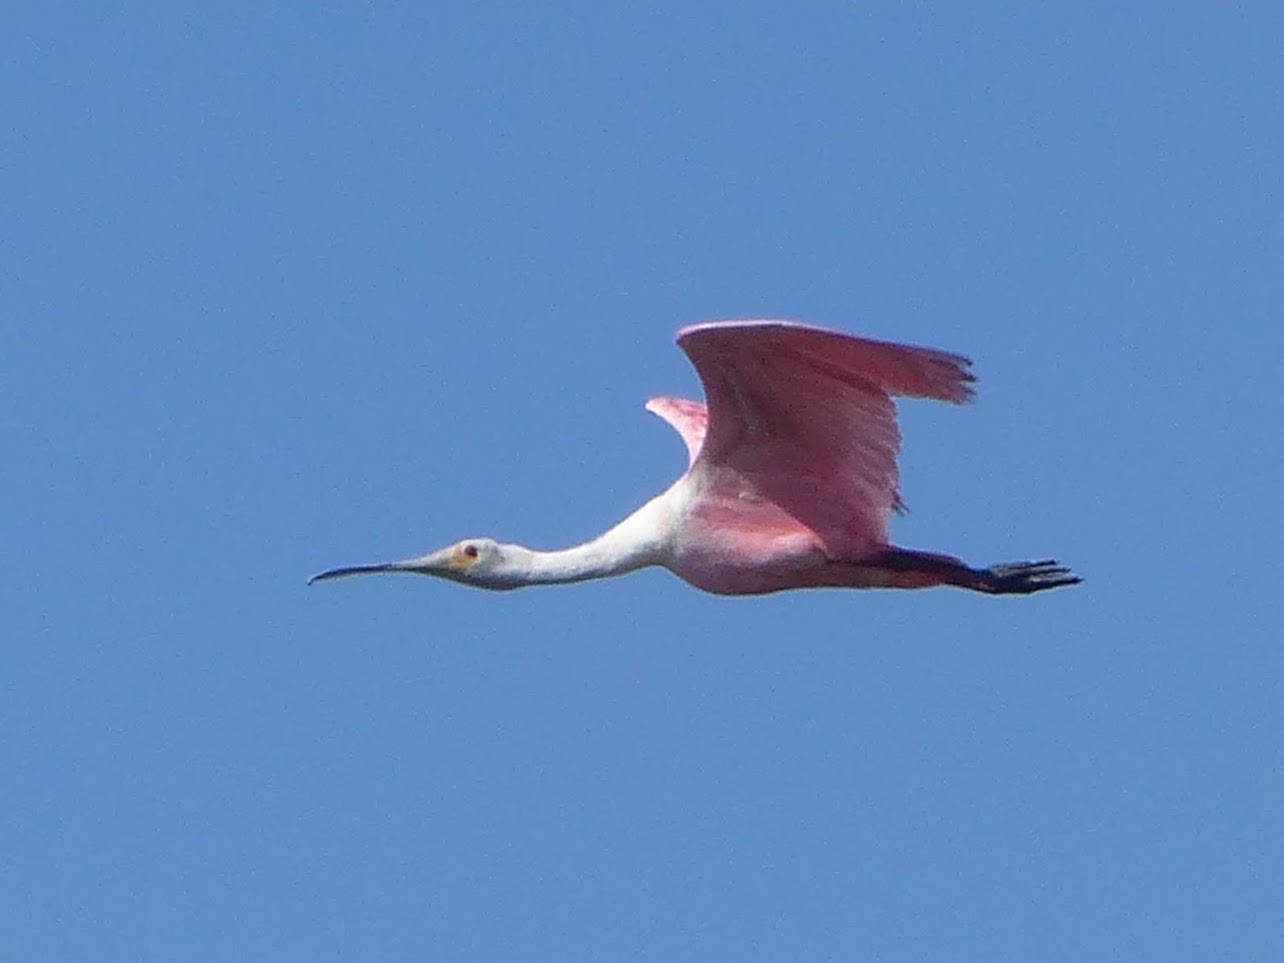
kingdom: Animalia
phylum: Chordata
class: Aves
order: Pelecaniformes
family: Threskiornithidae
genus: Platalea
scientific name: Platalea ajaja
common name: Roseate spoonbill
